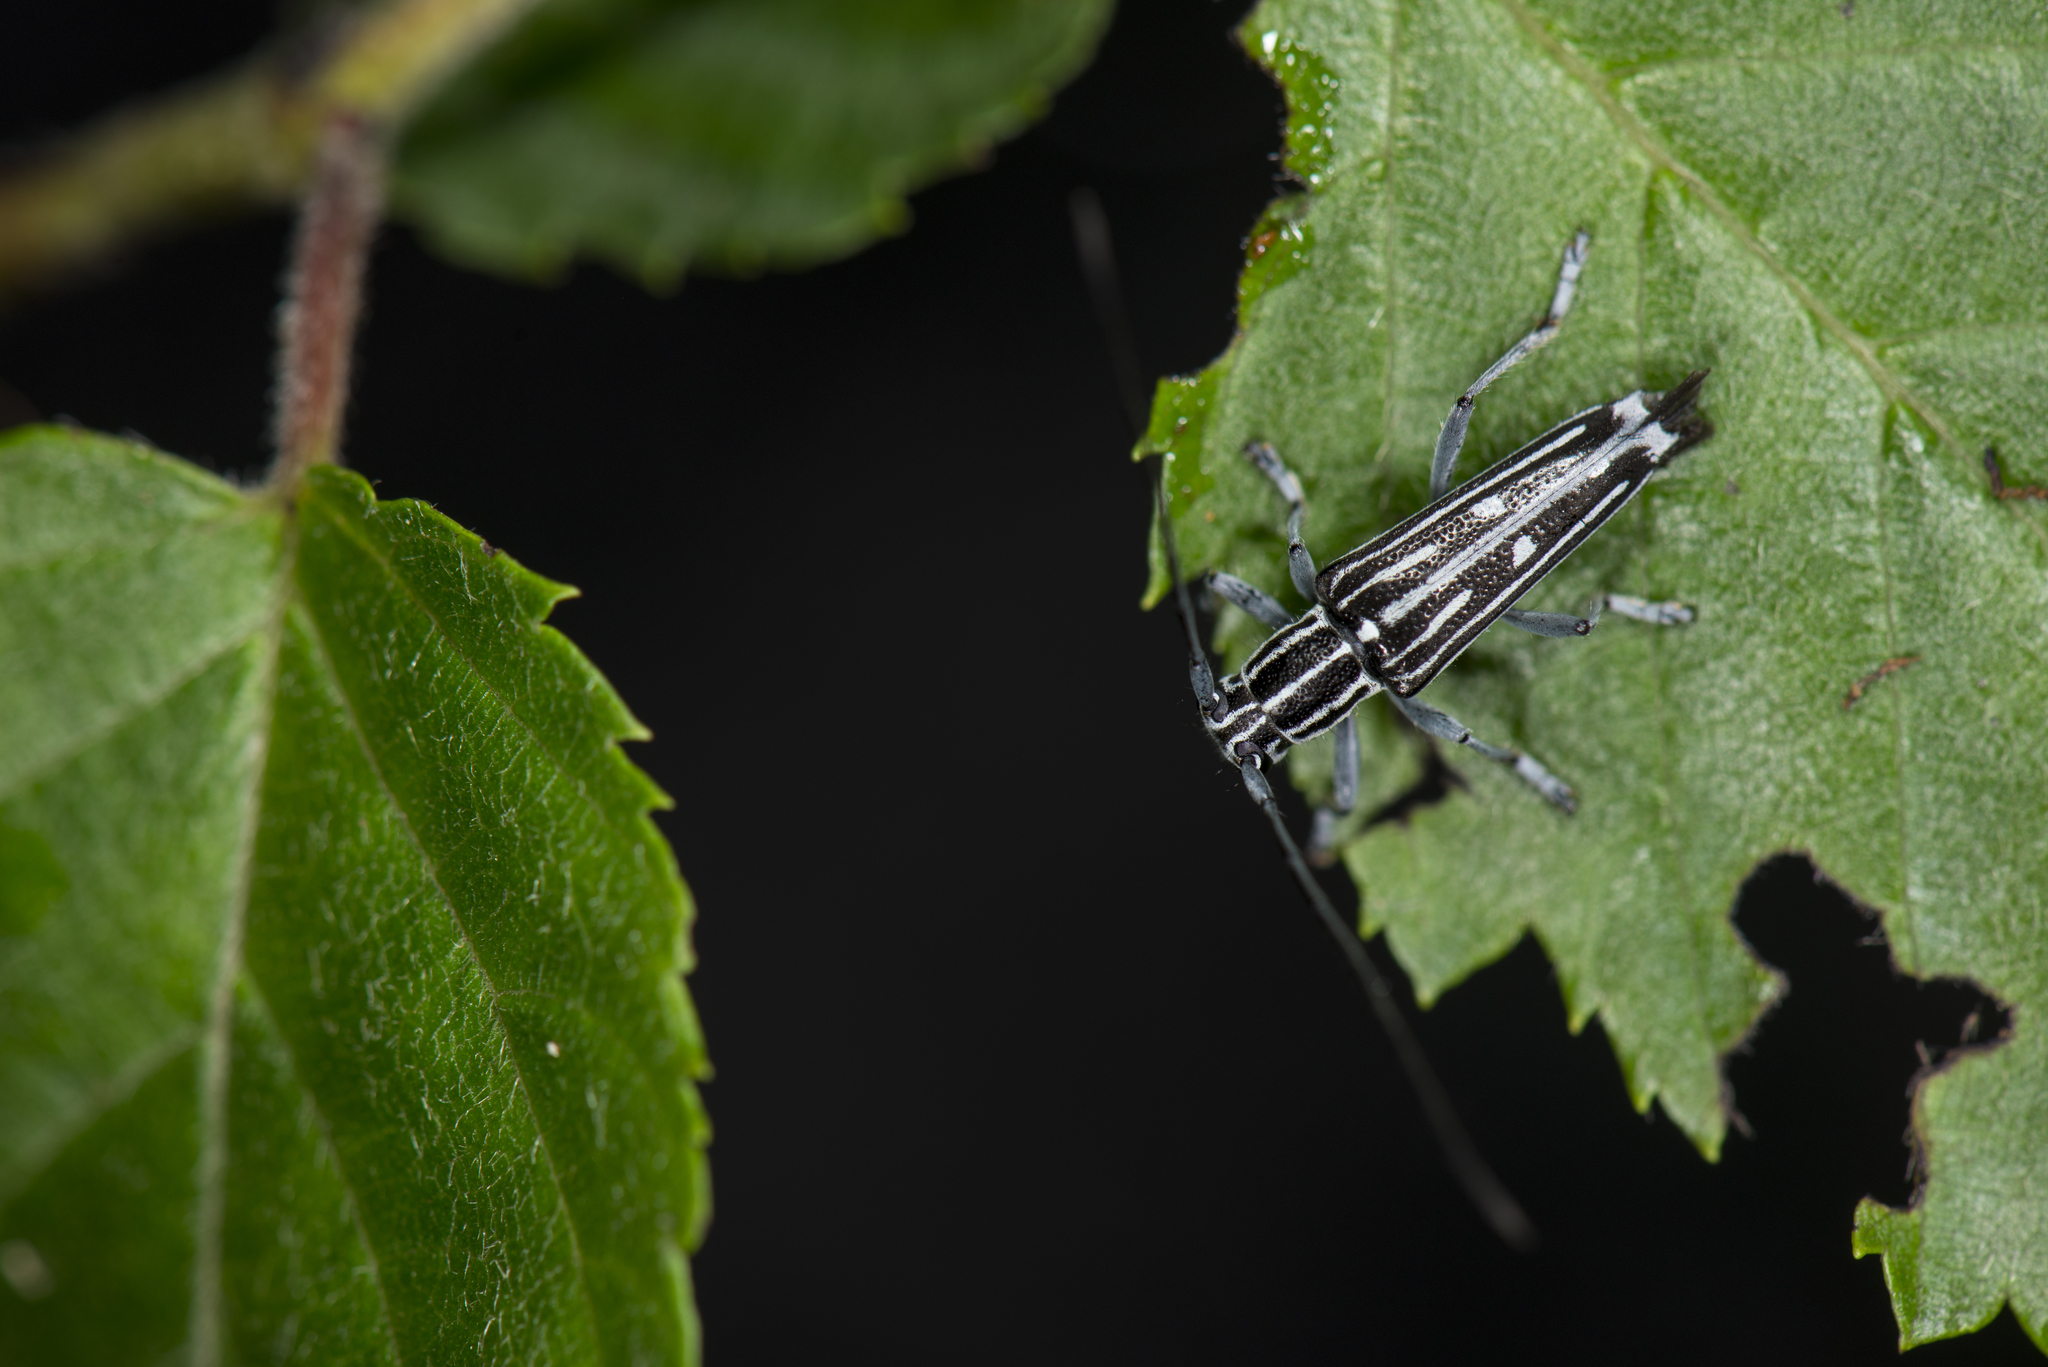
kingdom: Animalia
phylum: Arthropoda
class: Insecta
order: Coleoptera
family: Cerambycidae
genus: Glenea
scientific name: Glenea formosana
